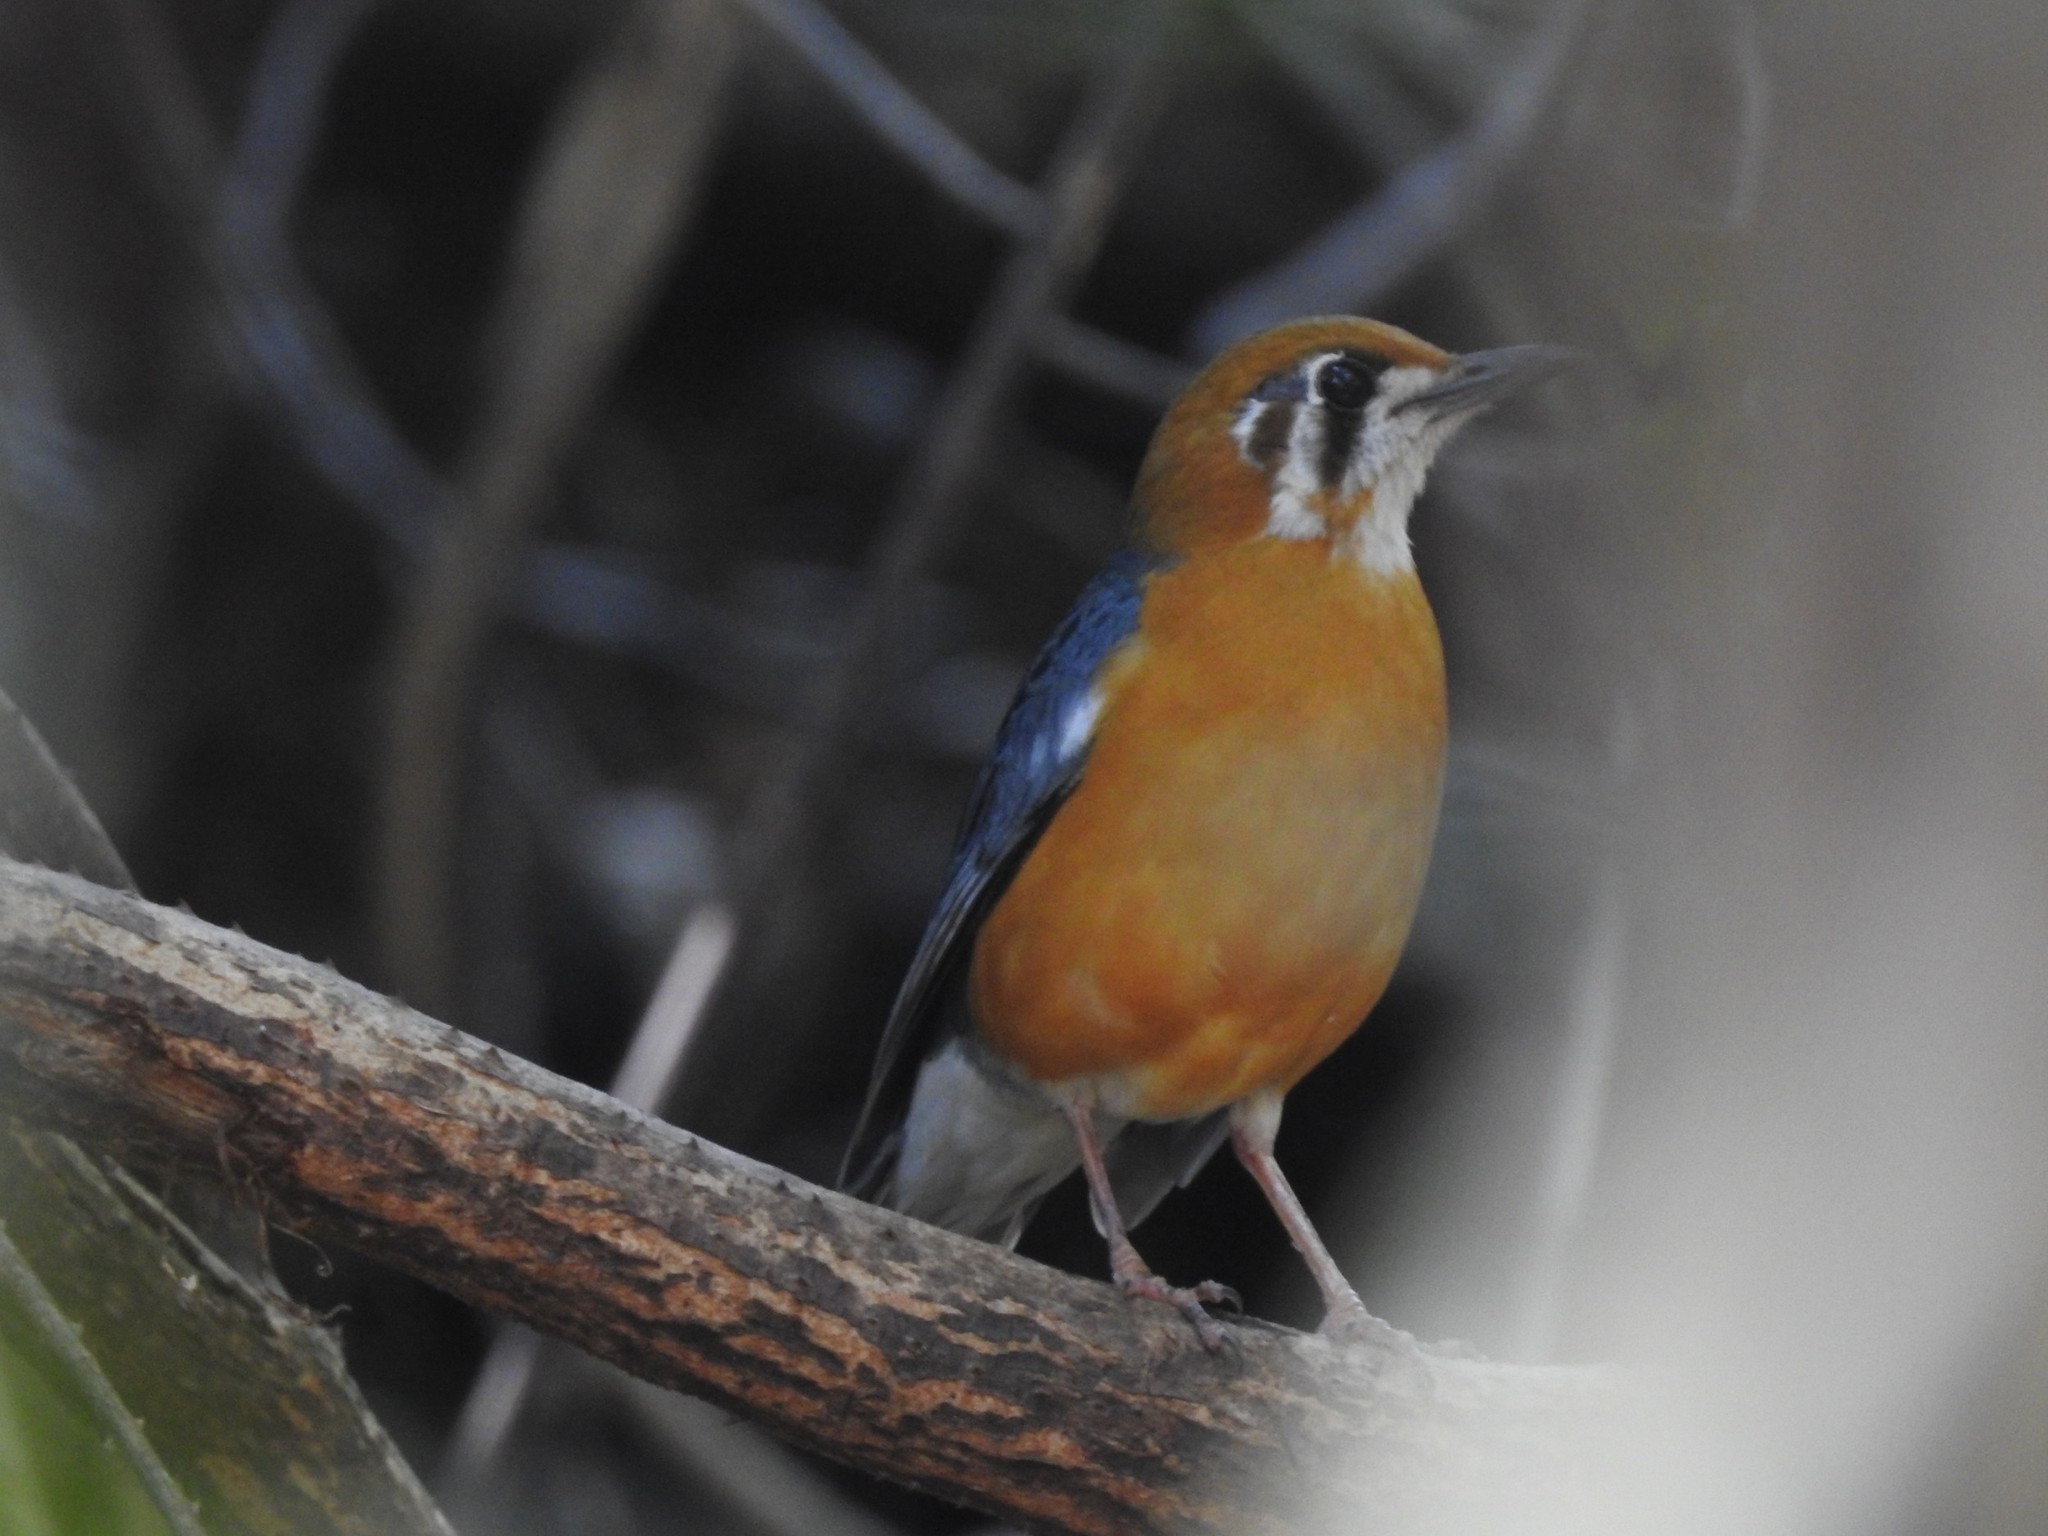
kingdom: Animalia
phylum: Chordata
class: Aves
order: Passeriformes
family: Turdidae
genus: Geokichla
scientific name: Geokichla citrina
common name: Orange-headed thrush
